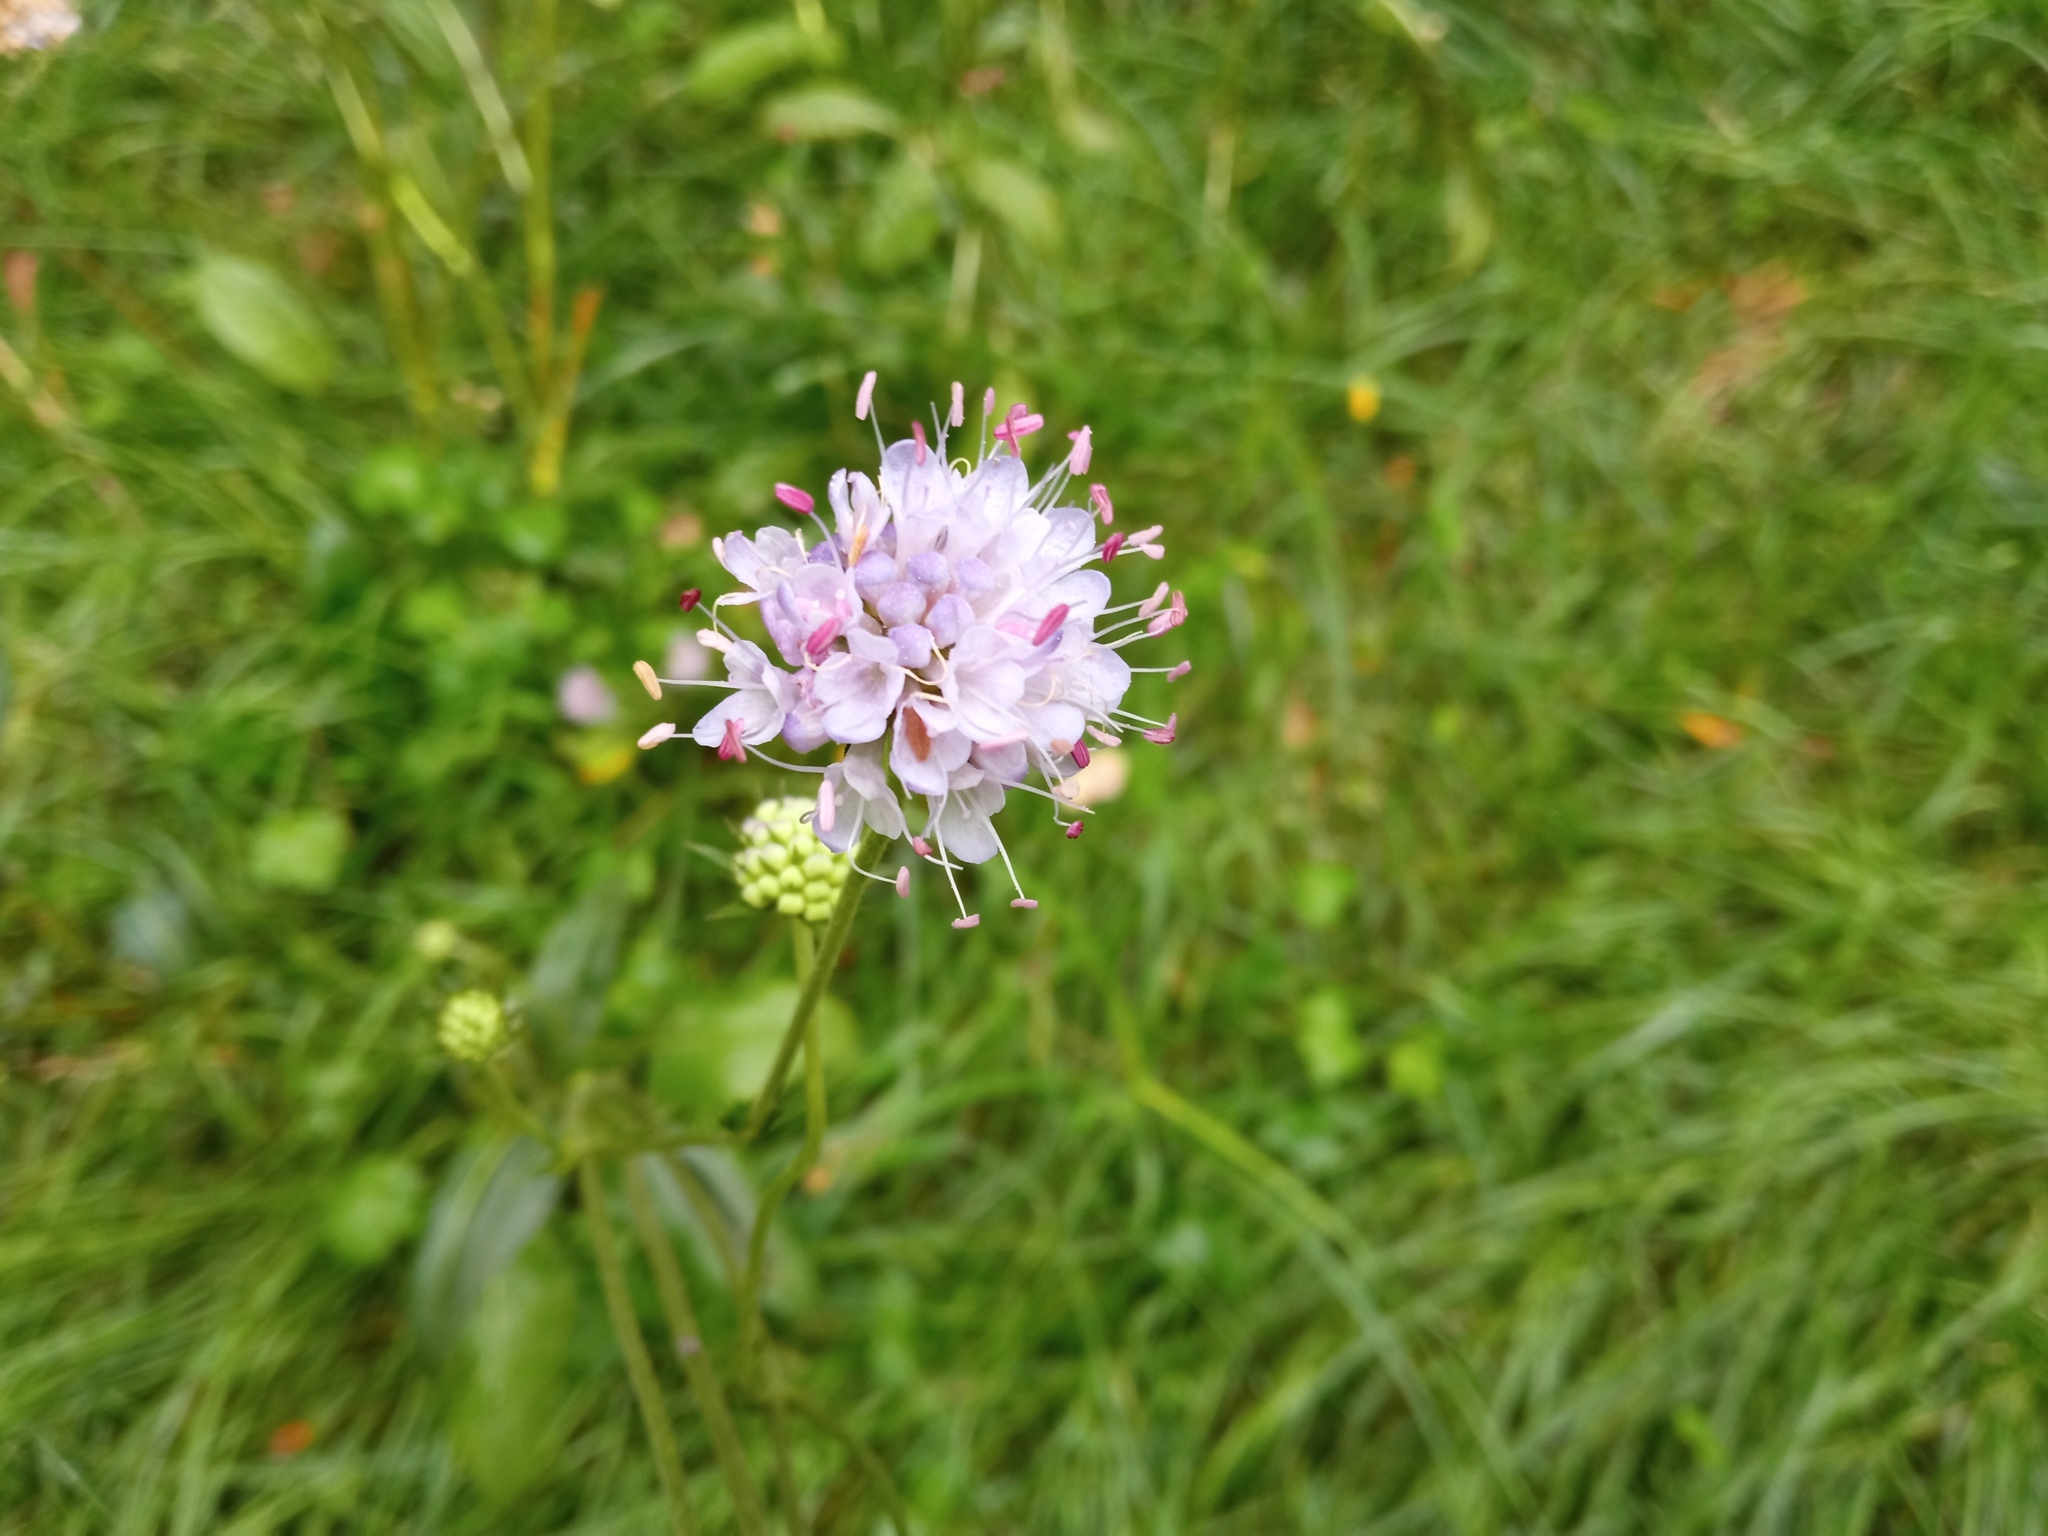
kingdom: Plantae
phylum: Tracheophyta
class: Magnoliopsida
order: Dipsacales
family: Caprifoliaceae
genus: Succisa
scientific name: Succisa pratensis
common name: Devil's-bit
